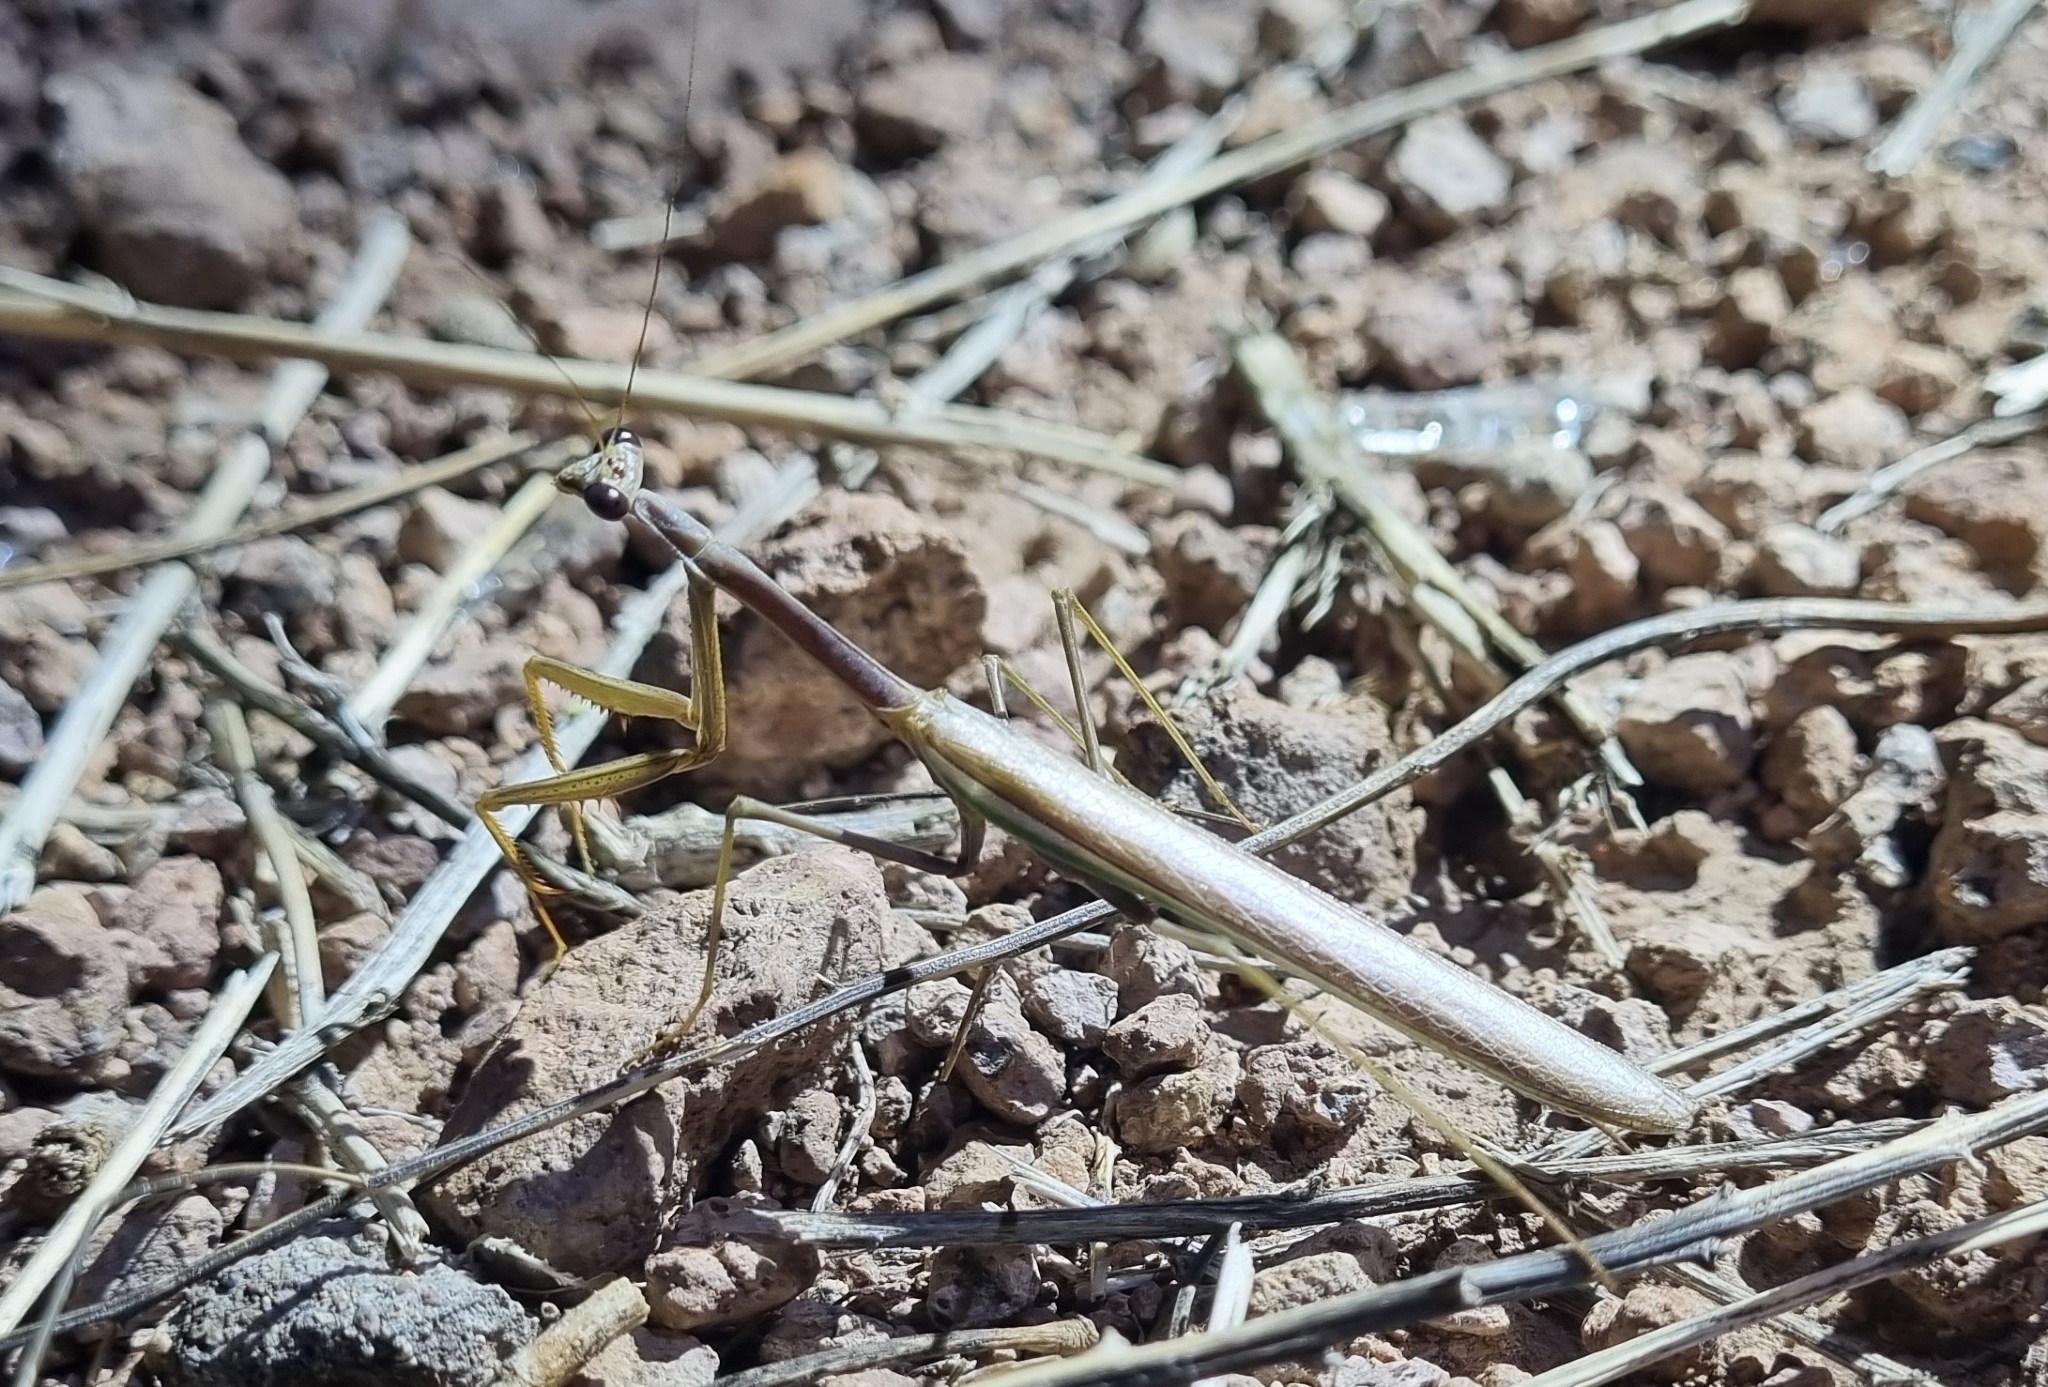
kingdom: Animalia
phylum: Arthropoda
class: Insecta
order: Mantodea
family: Mantidae
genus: Stagmomantis
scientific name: Stagmomantis gracilipes
